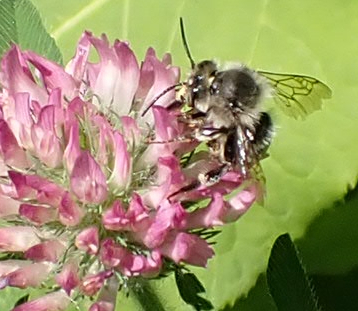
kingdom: Animalia
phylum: Arthropoda
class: Insecta
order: Hymenoptera
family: Apidae
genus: Anthophora
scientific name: Anthophora terminalis
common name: Orange-tipped wood-digger bee
